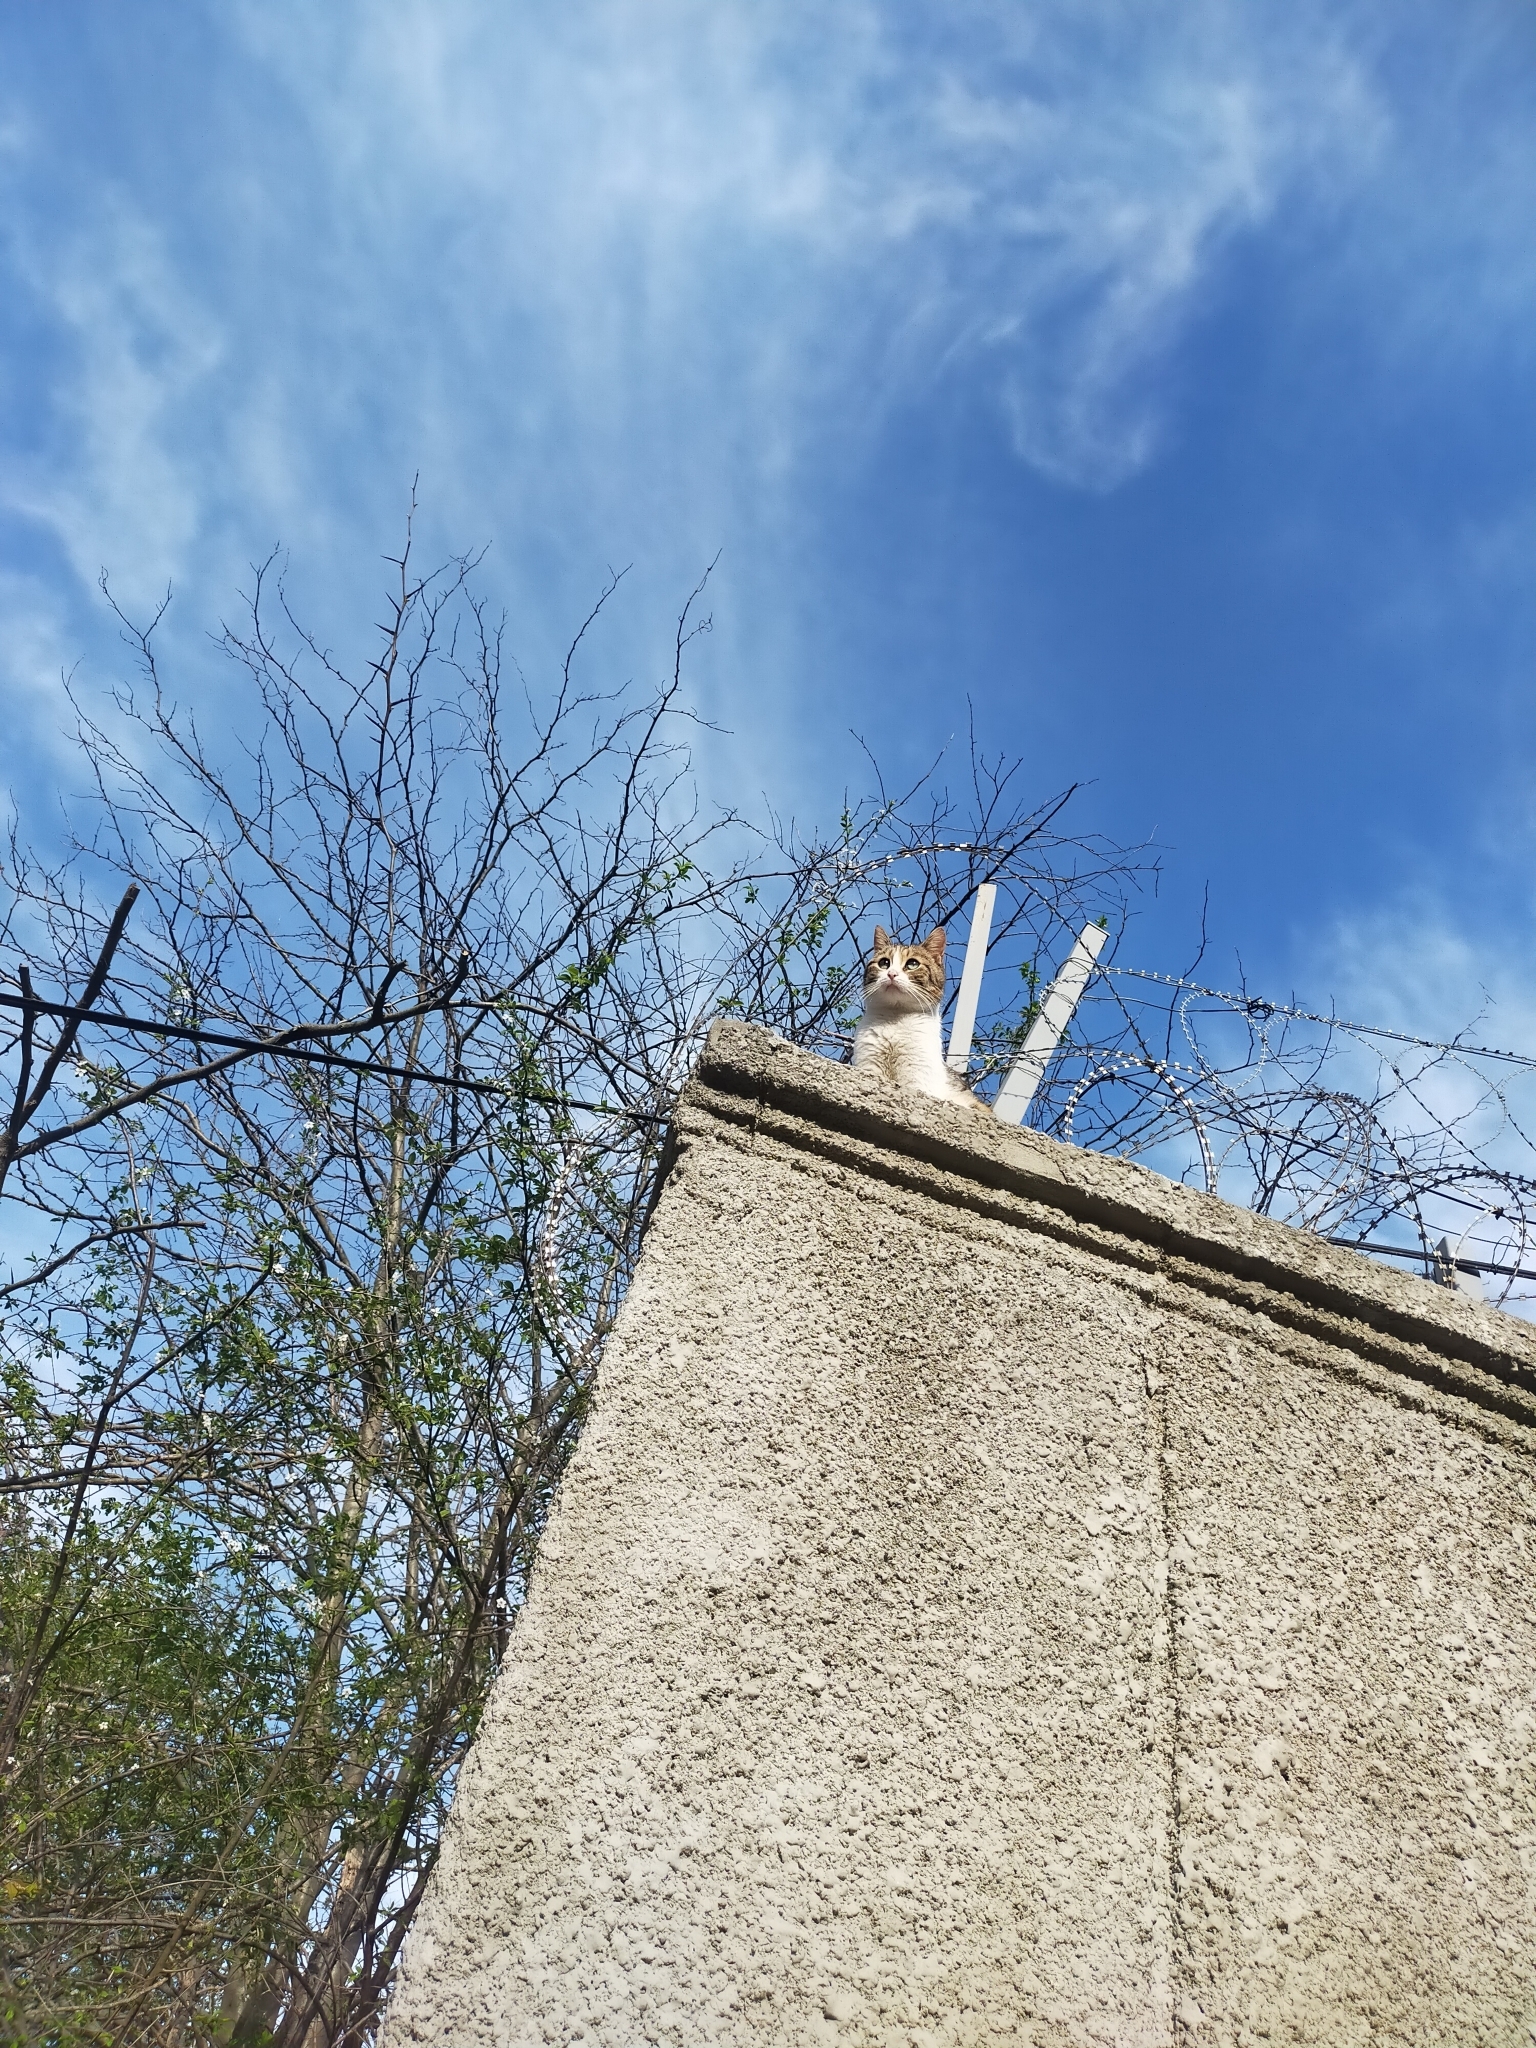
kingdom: Animalia
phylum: Chordata
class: Mammalia
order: Carnivora
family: Felidae
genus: Felis
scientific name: Felis catus
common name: Domestic cat
